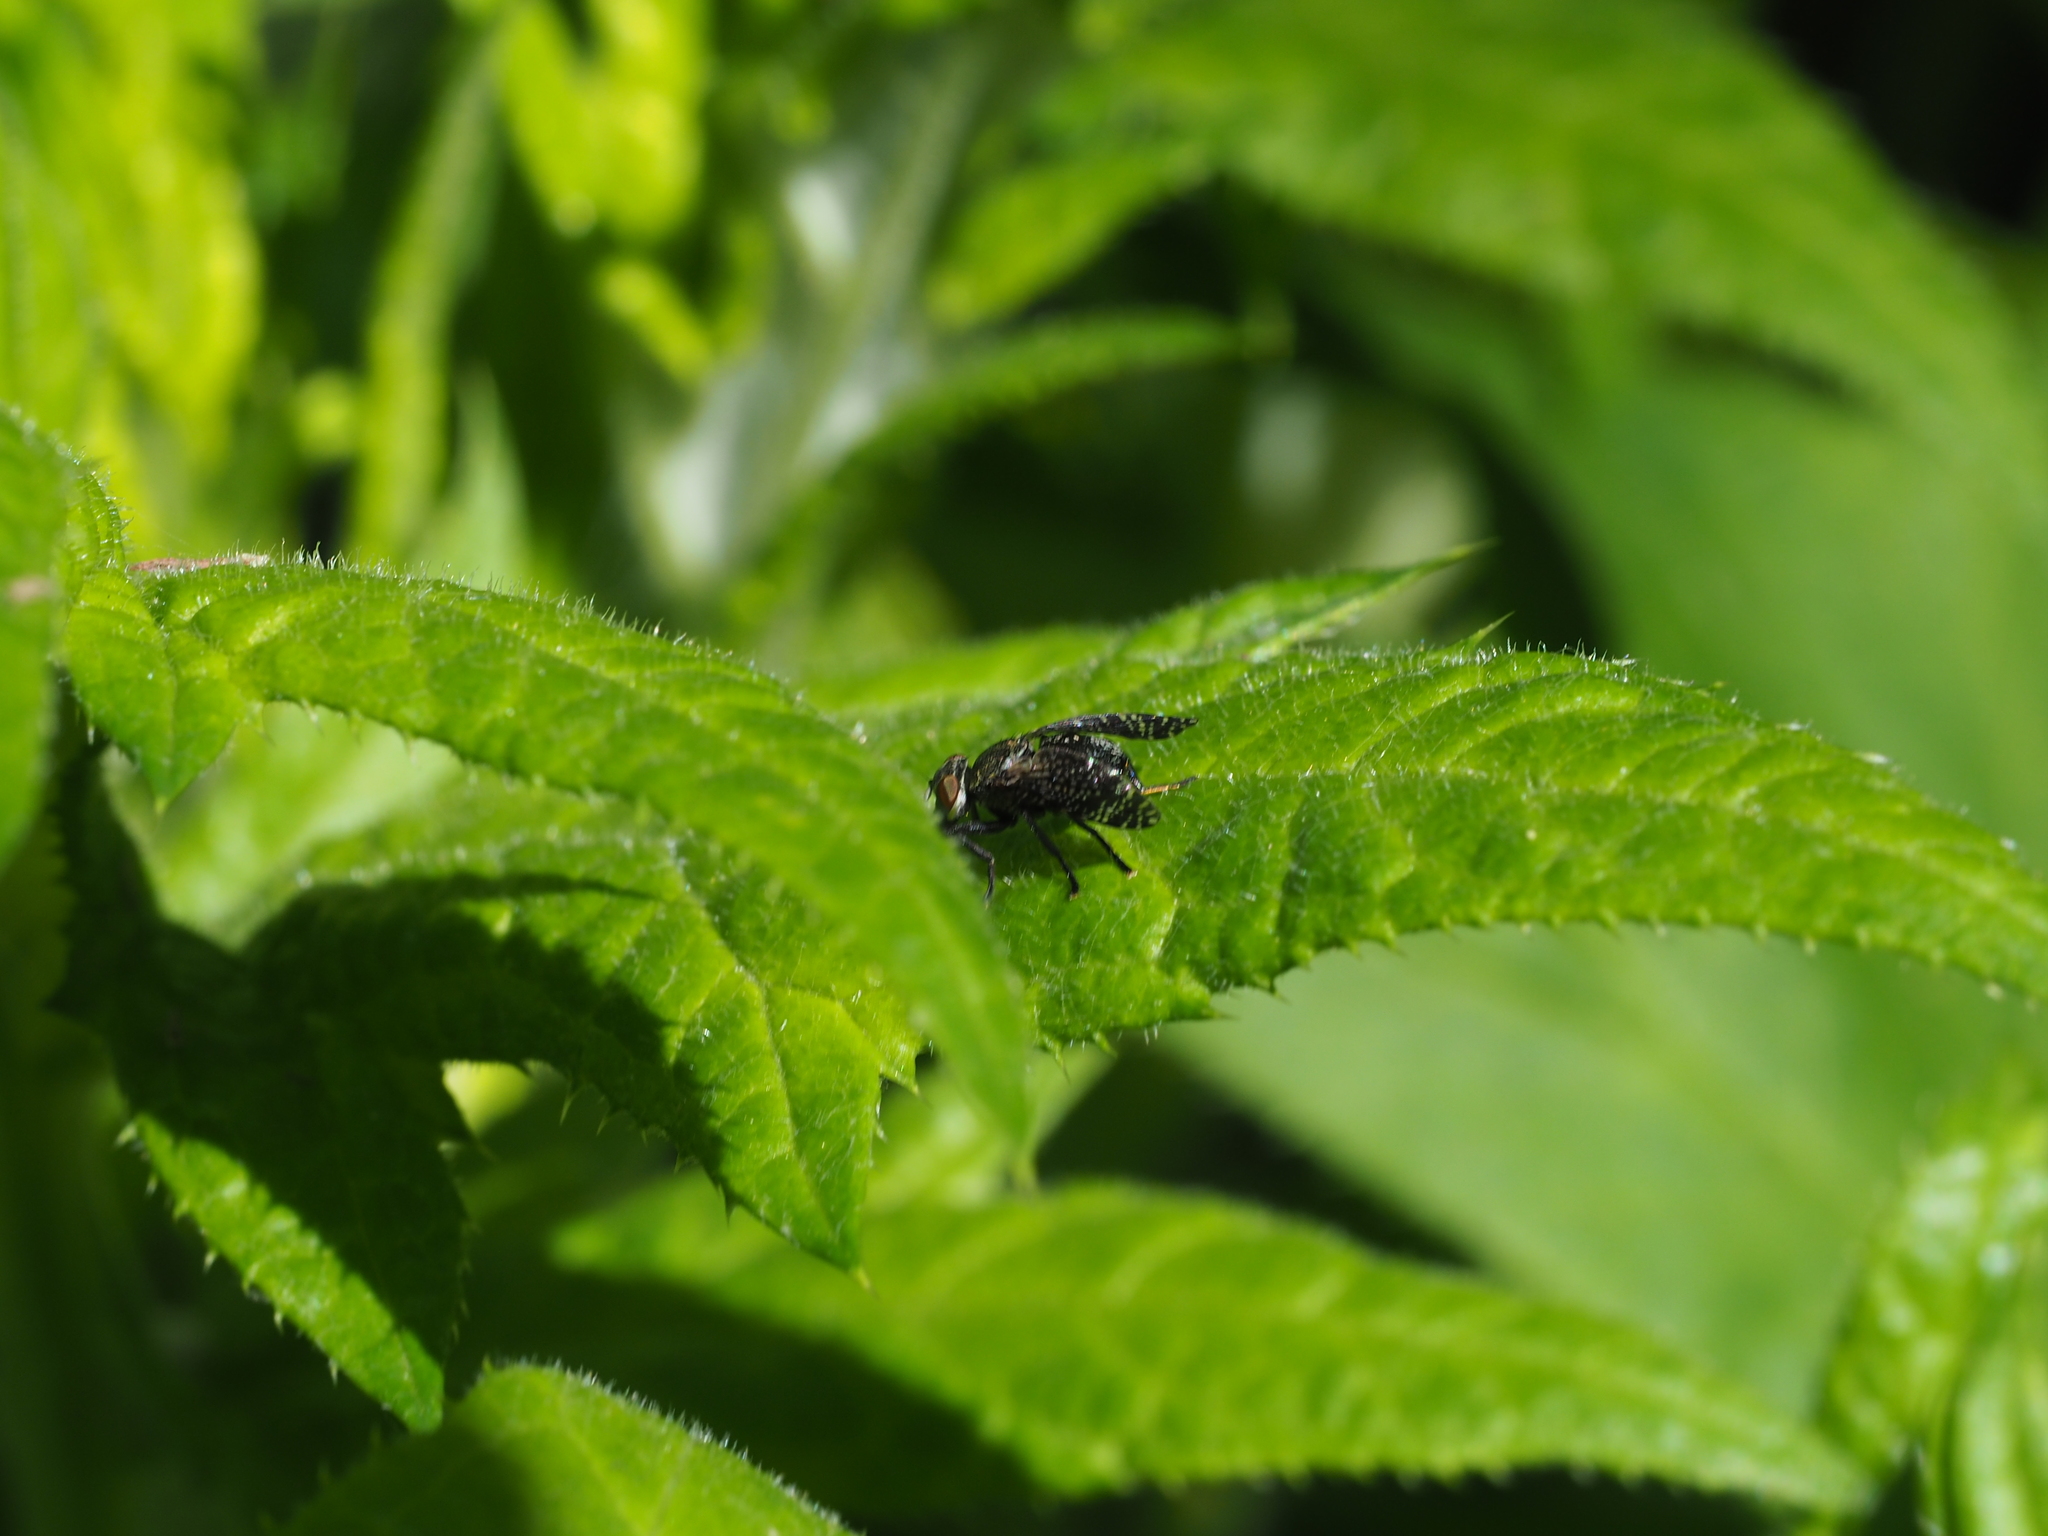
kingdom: Animalia
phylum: Arthropoda
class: Insecta
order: Diptera
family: Platystomatidae
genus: Platystoma
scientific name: Platystoma seminationis
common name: Fly
